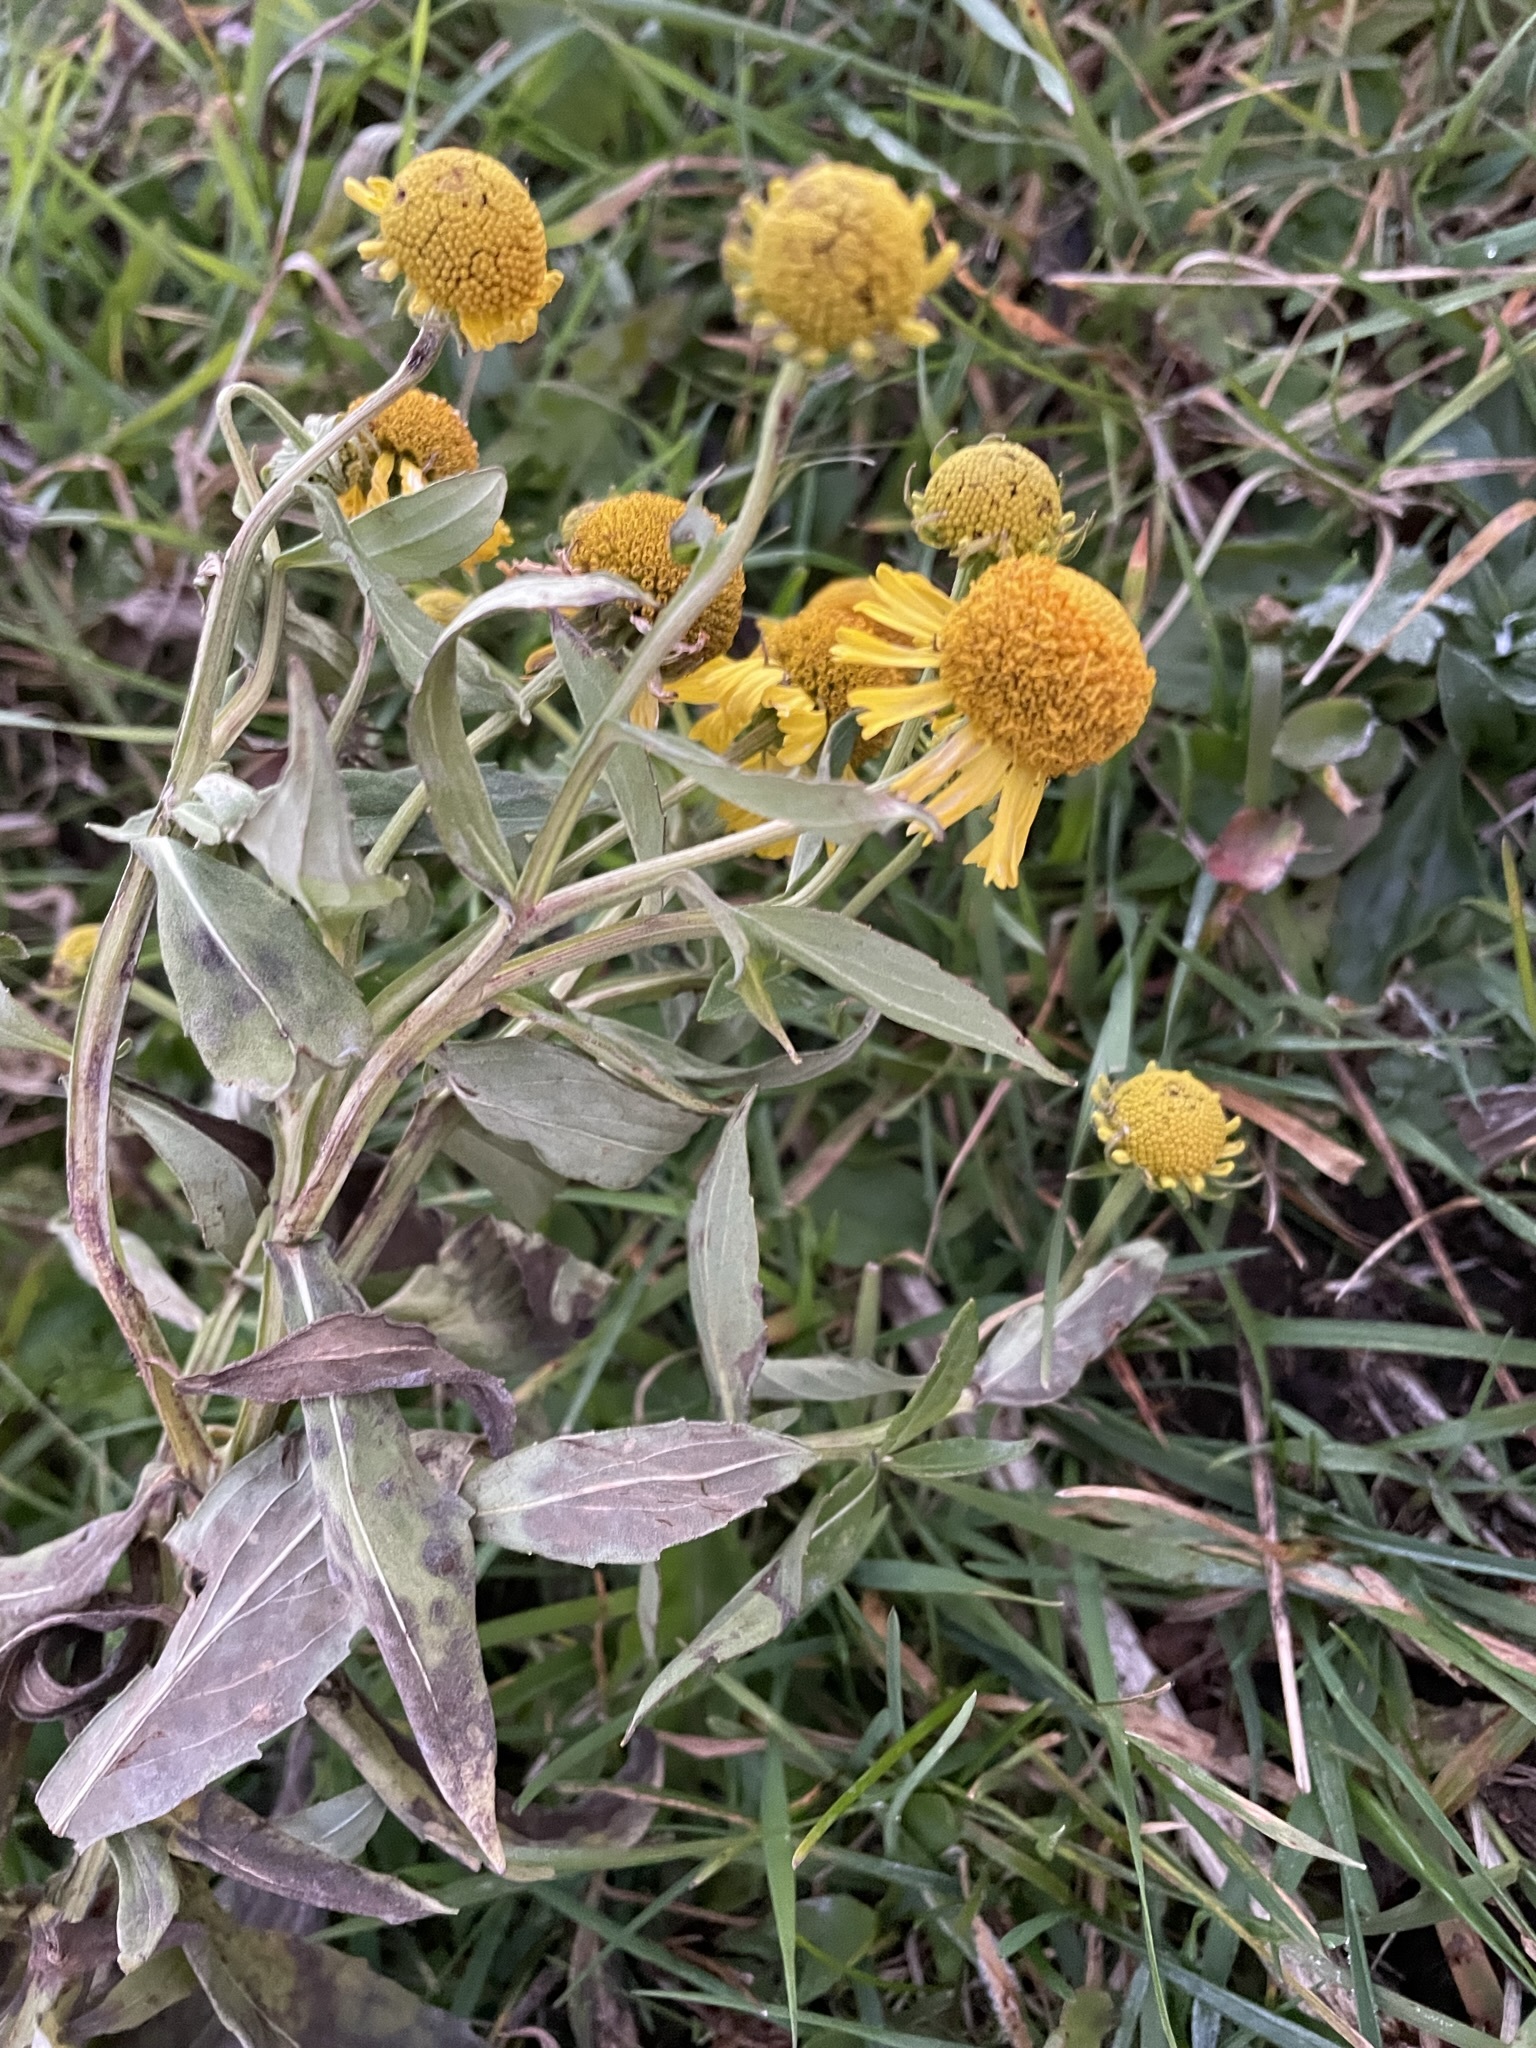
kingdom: Plantae
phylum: Tracheophyta
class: Magnoliopsida
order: Asterales
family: Asteraceae
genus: Helenium
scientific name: Helenium autumnale
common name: Sneezeweed
